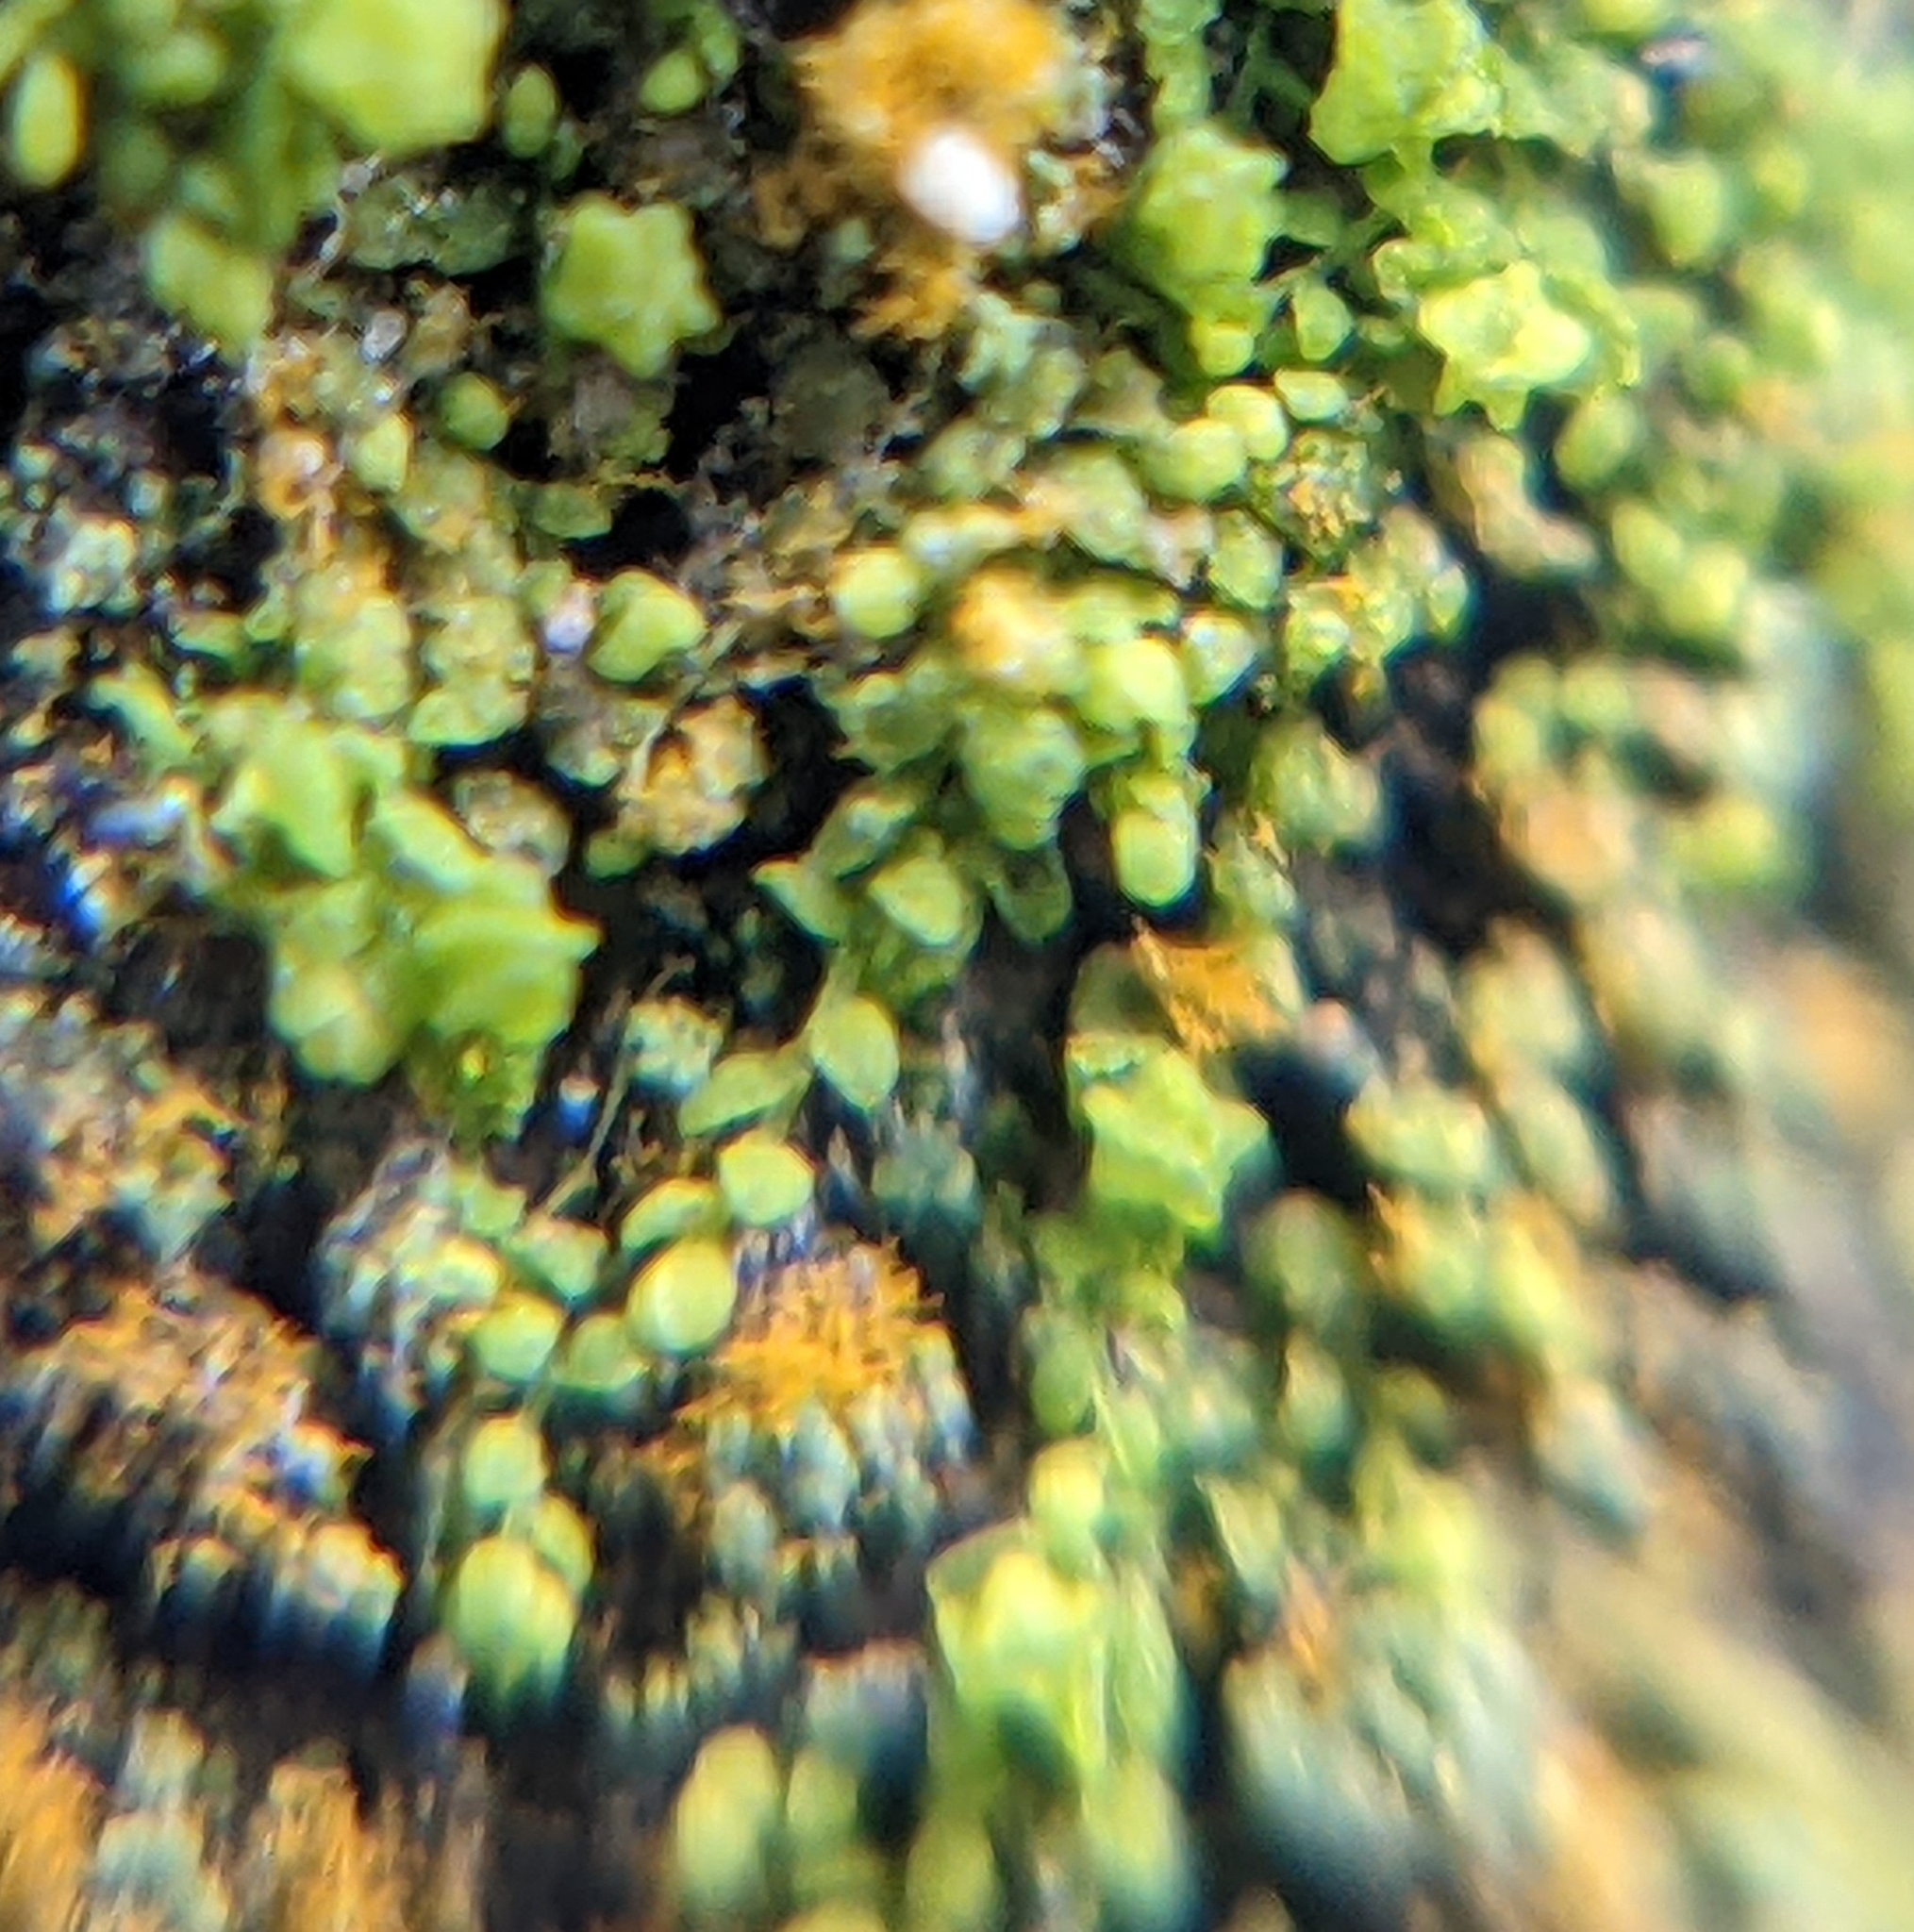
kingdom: Plantae
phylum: Marchantiophyta
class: Jungermanniopsida
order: Porellales
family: Lejeuneaceae
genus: Myriocoleopsis
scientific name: Myriocoleopsis minutissima
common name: Minute pouncewort
